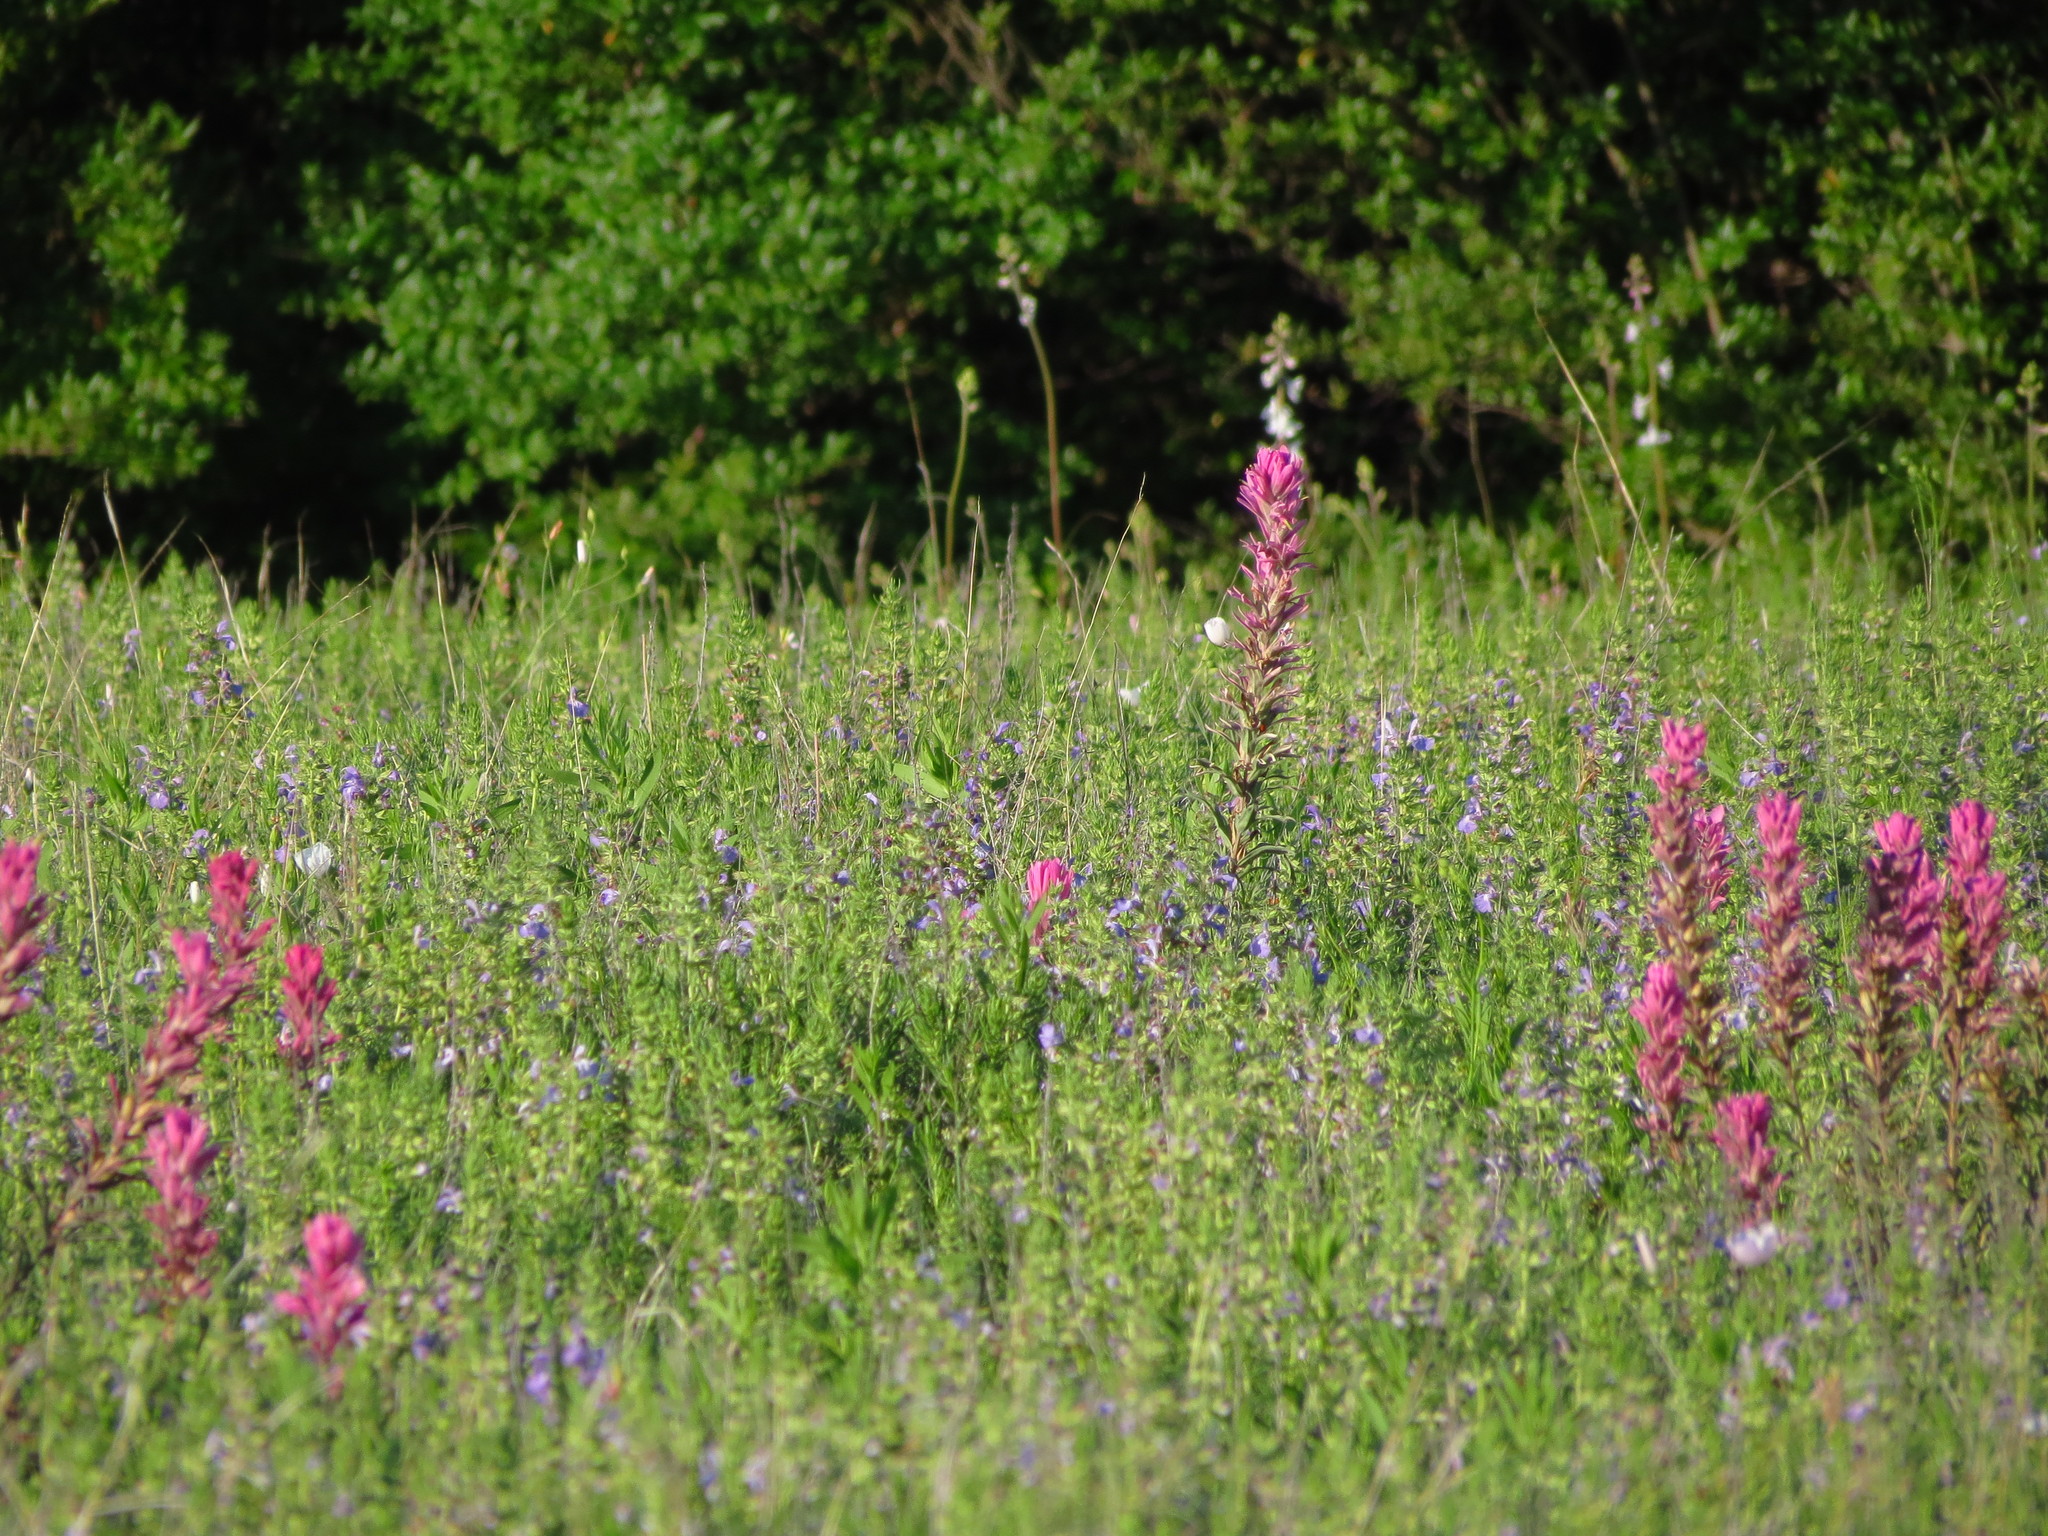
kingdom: Plantae
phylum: Tracheophyta
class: Magnoliopsida
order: Lamiales
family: Orobanchaceae
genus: Castilleja
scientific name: Castilleja purpurea
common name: Plains paintbrush
